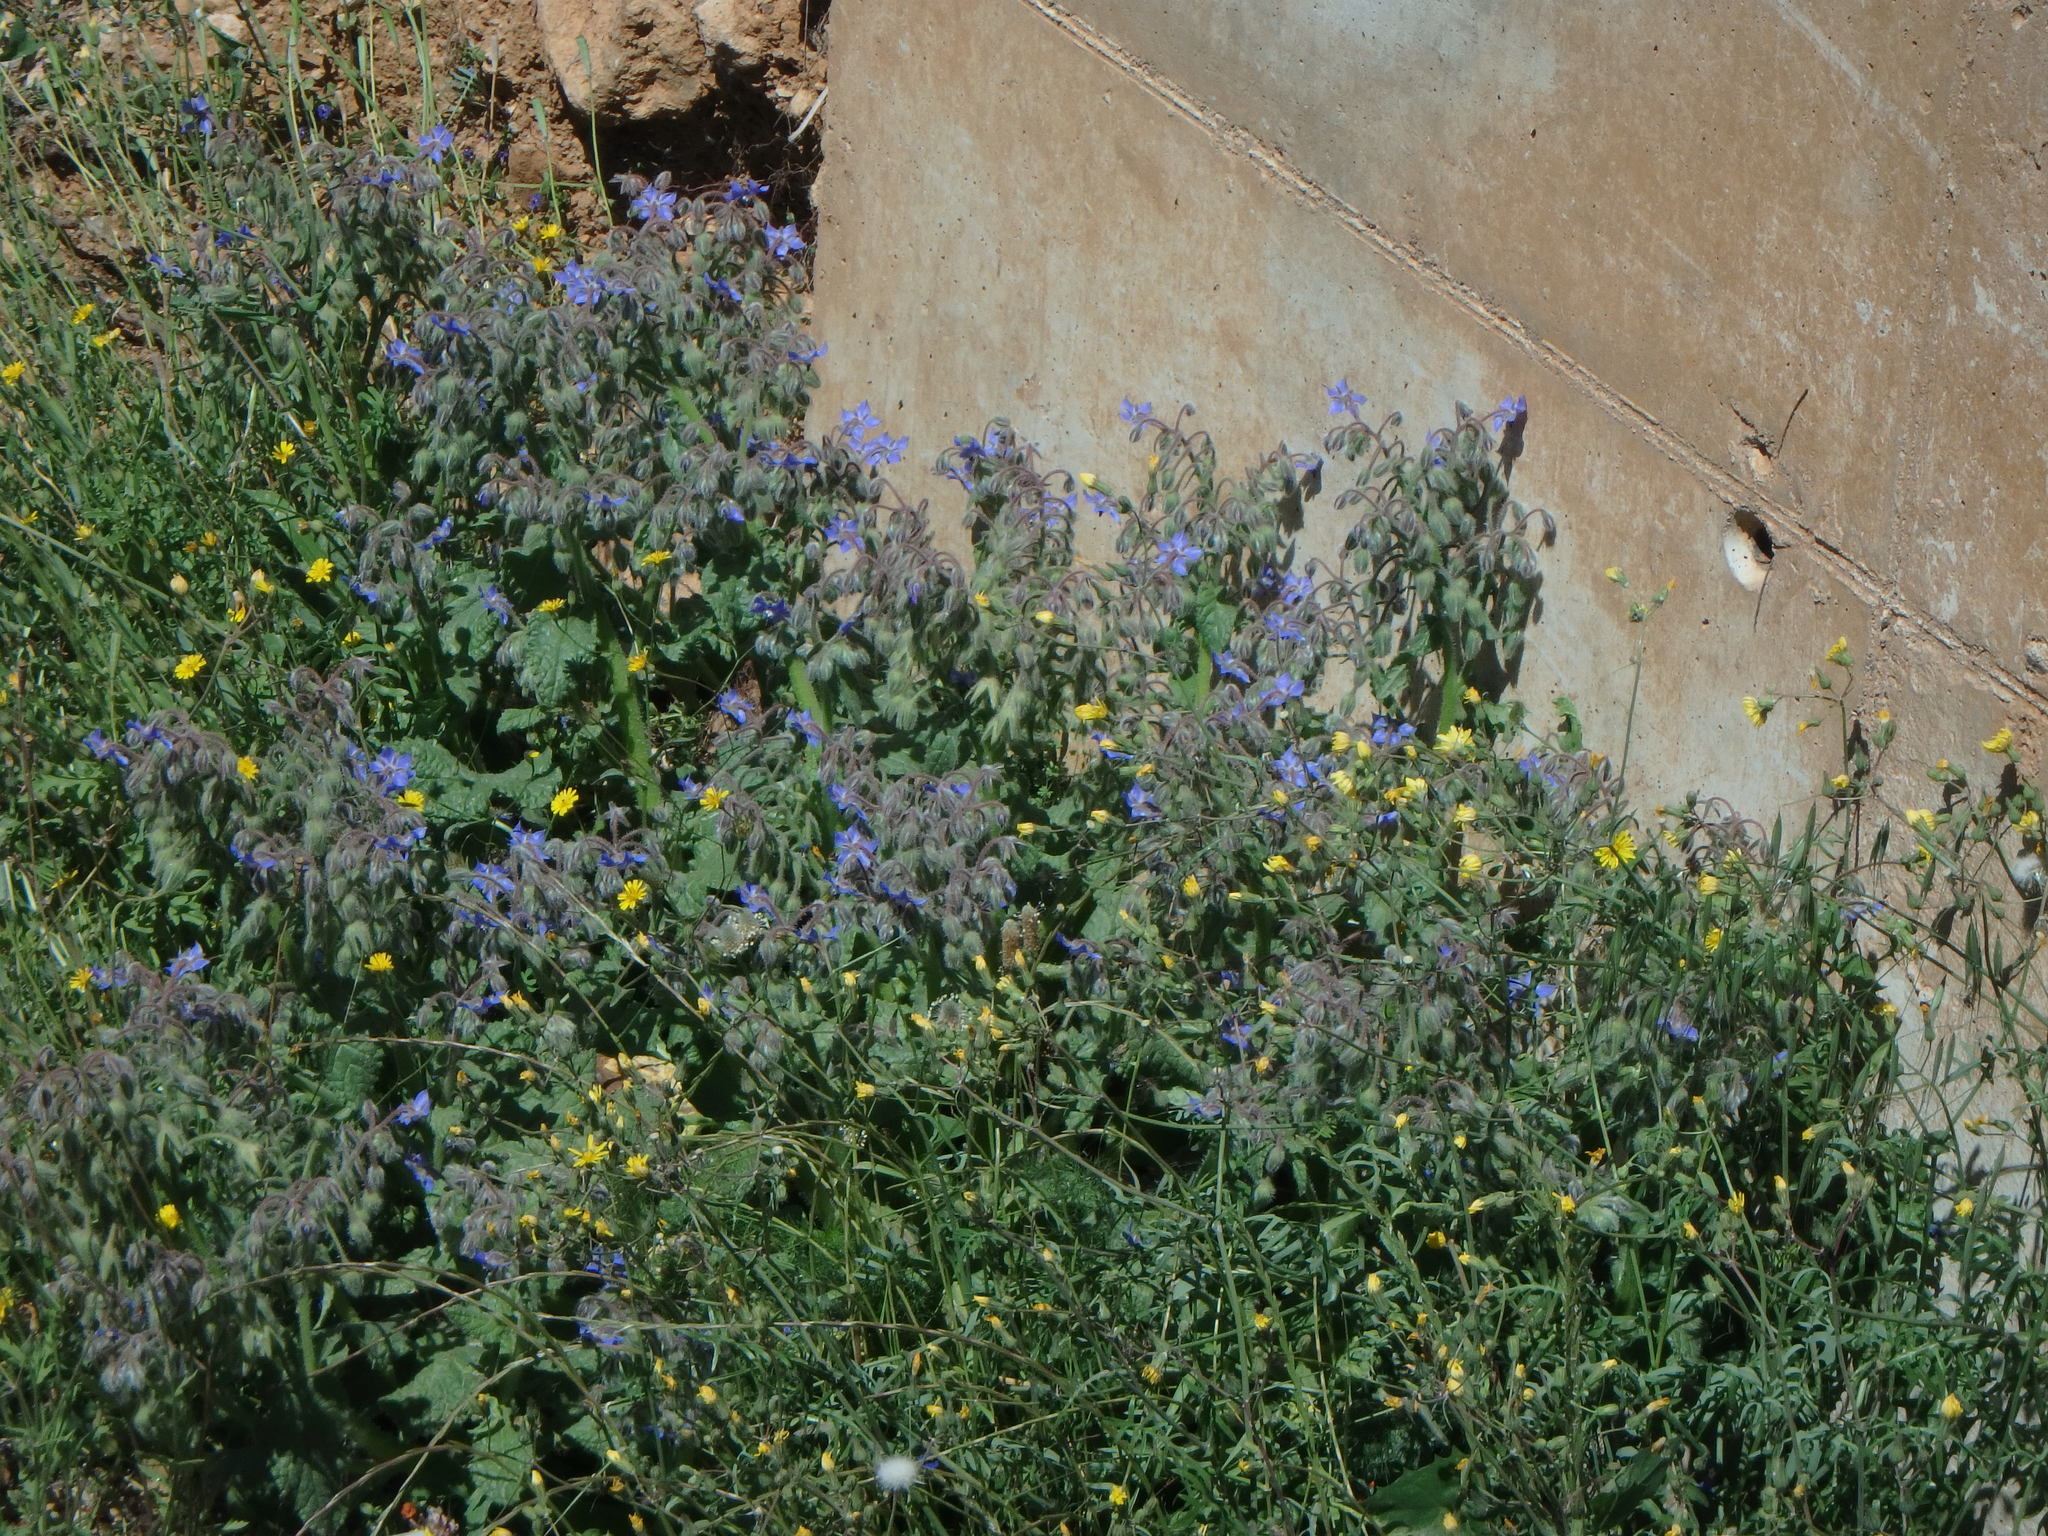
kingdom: Plantae
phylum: Tracheophyta
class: Magnoliopsida
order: Boraginales
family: Boraginaceae
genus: Borago
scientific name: Borago officinalis
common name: Borage
